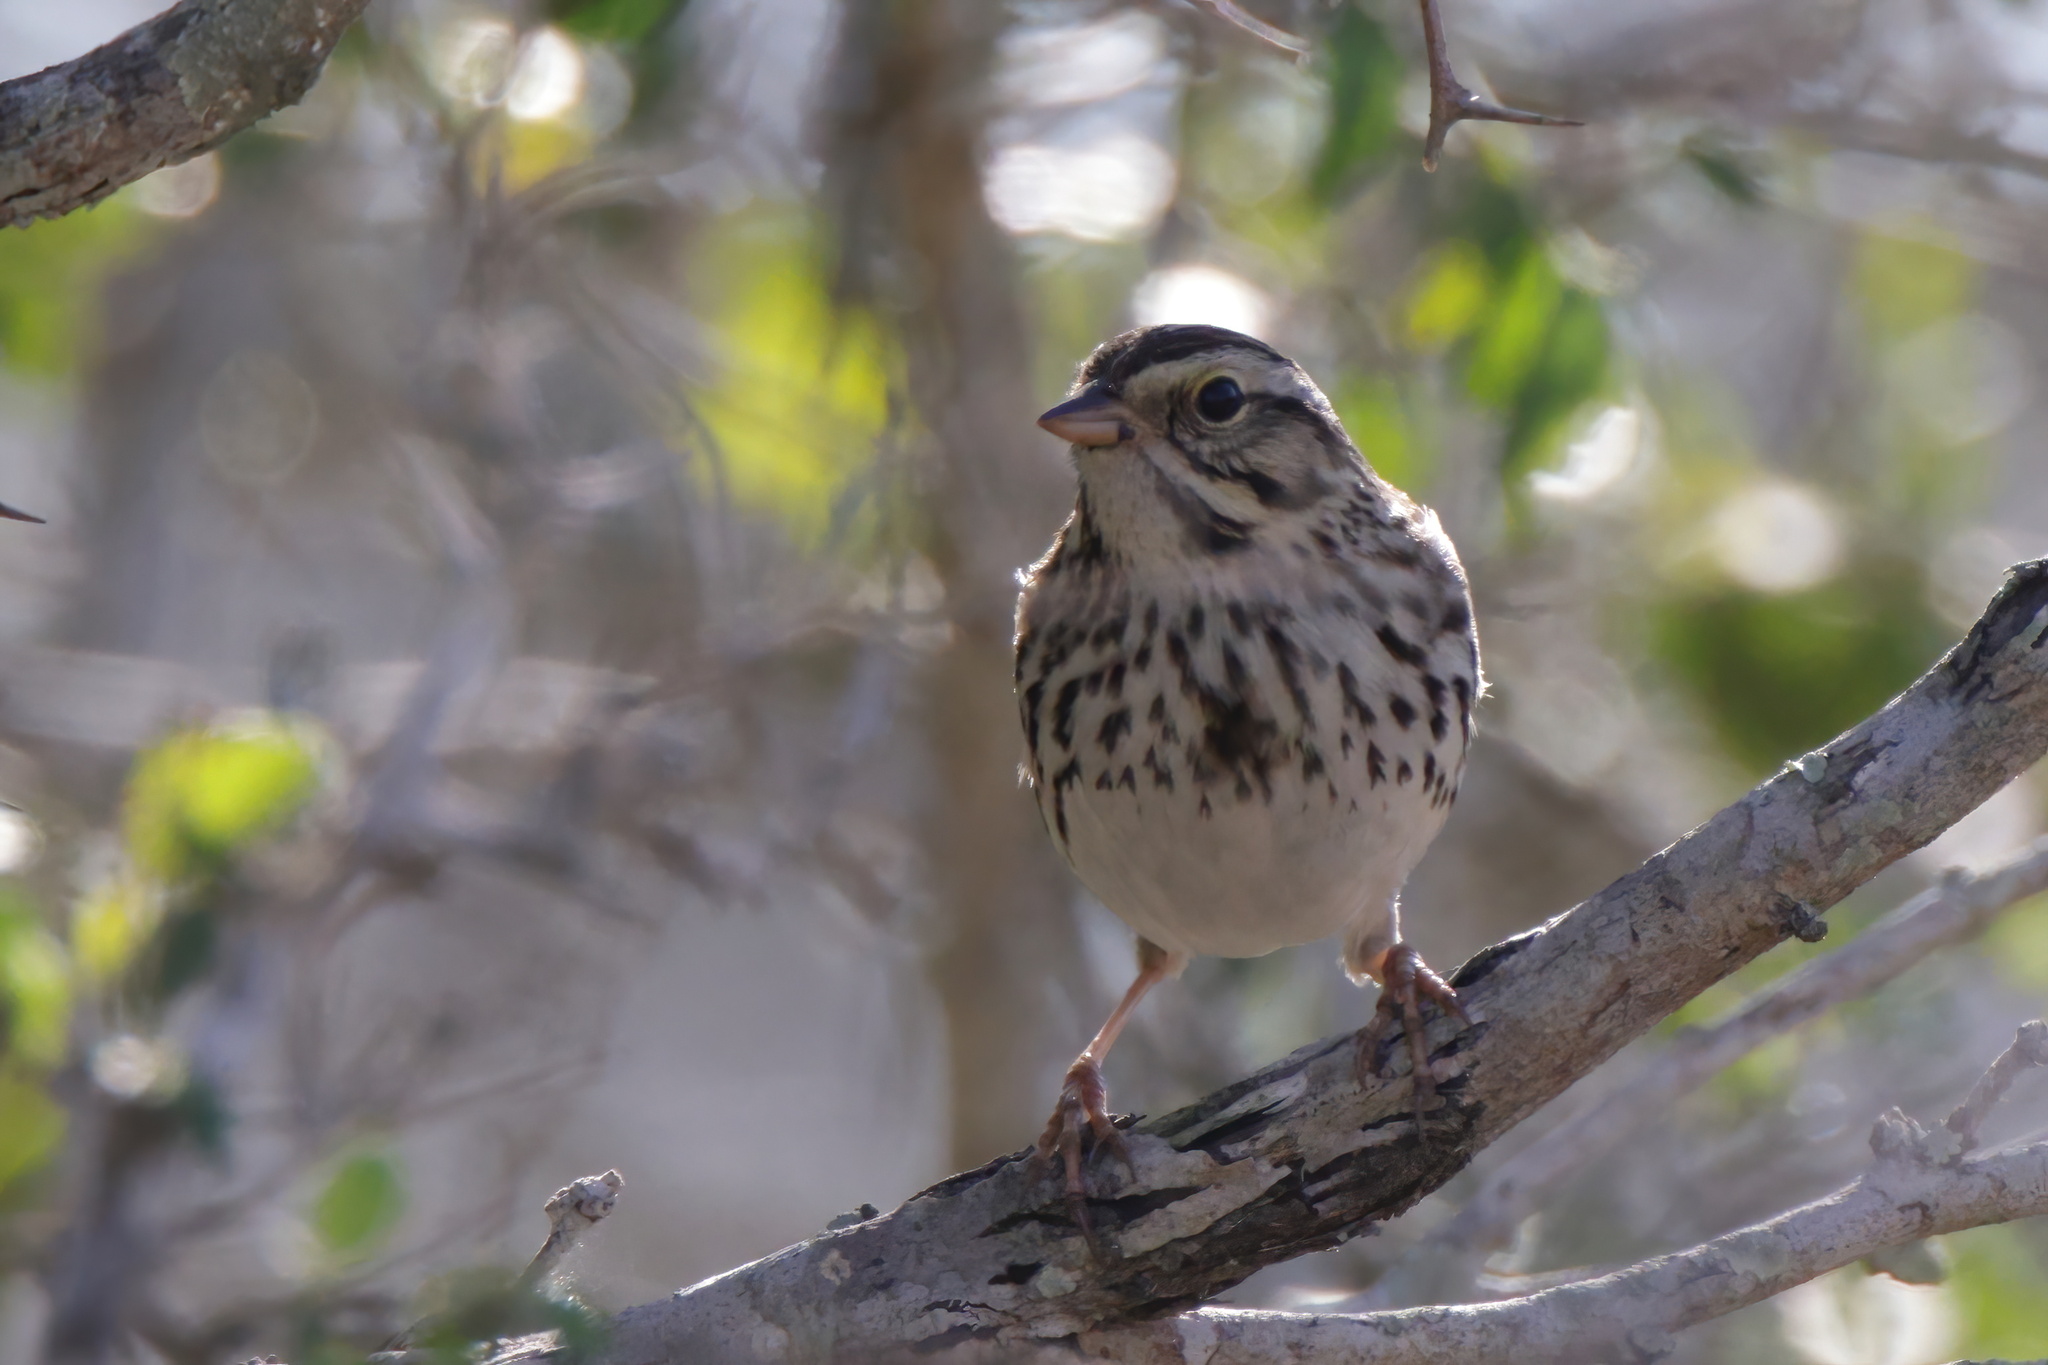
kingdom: Animalia
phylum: Chordata
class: Aves
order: Passeriformes
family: Passerellidae
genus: Passerculus
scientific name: Passerculus sandwichensis
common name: Savannah sparrow
